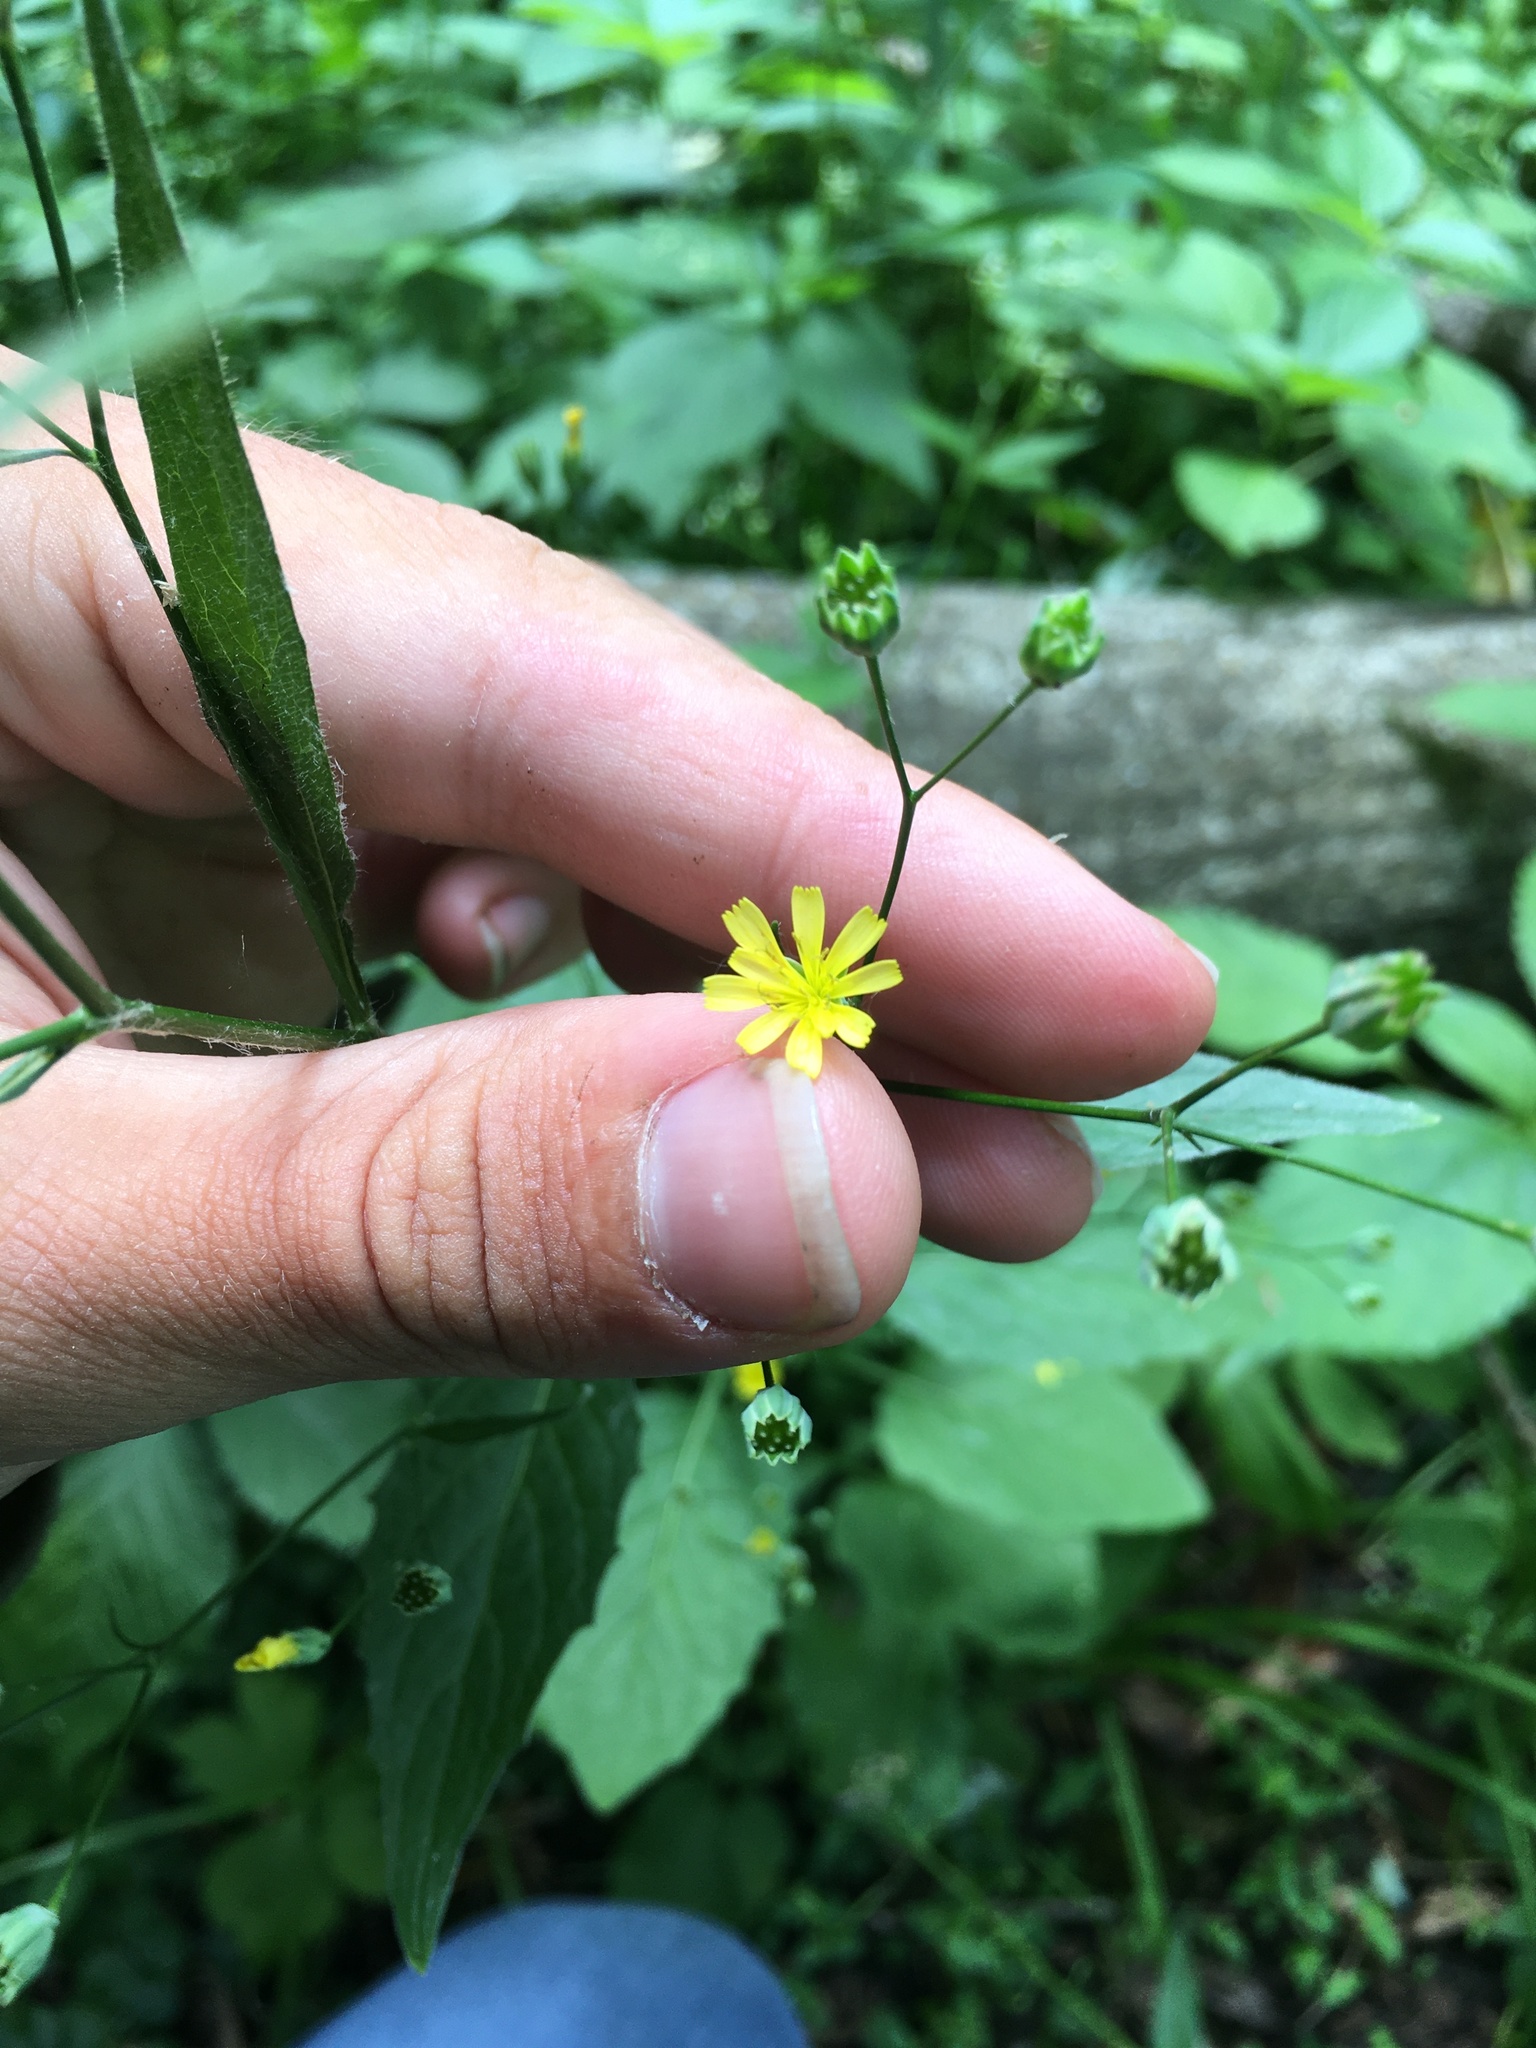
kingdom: Plantae
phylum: Tracheophyta
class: Magnoliopsida
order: Asterales
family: Asteraceae
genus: Lapsana
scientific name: Lapsana communis
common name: Nipplewort
